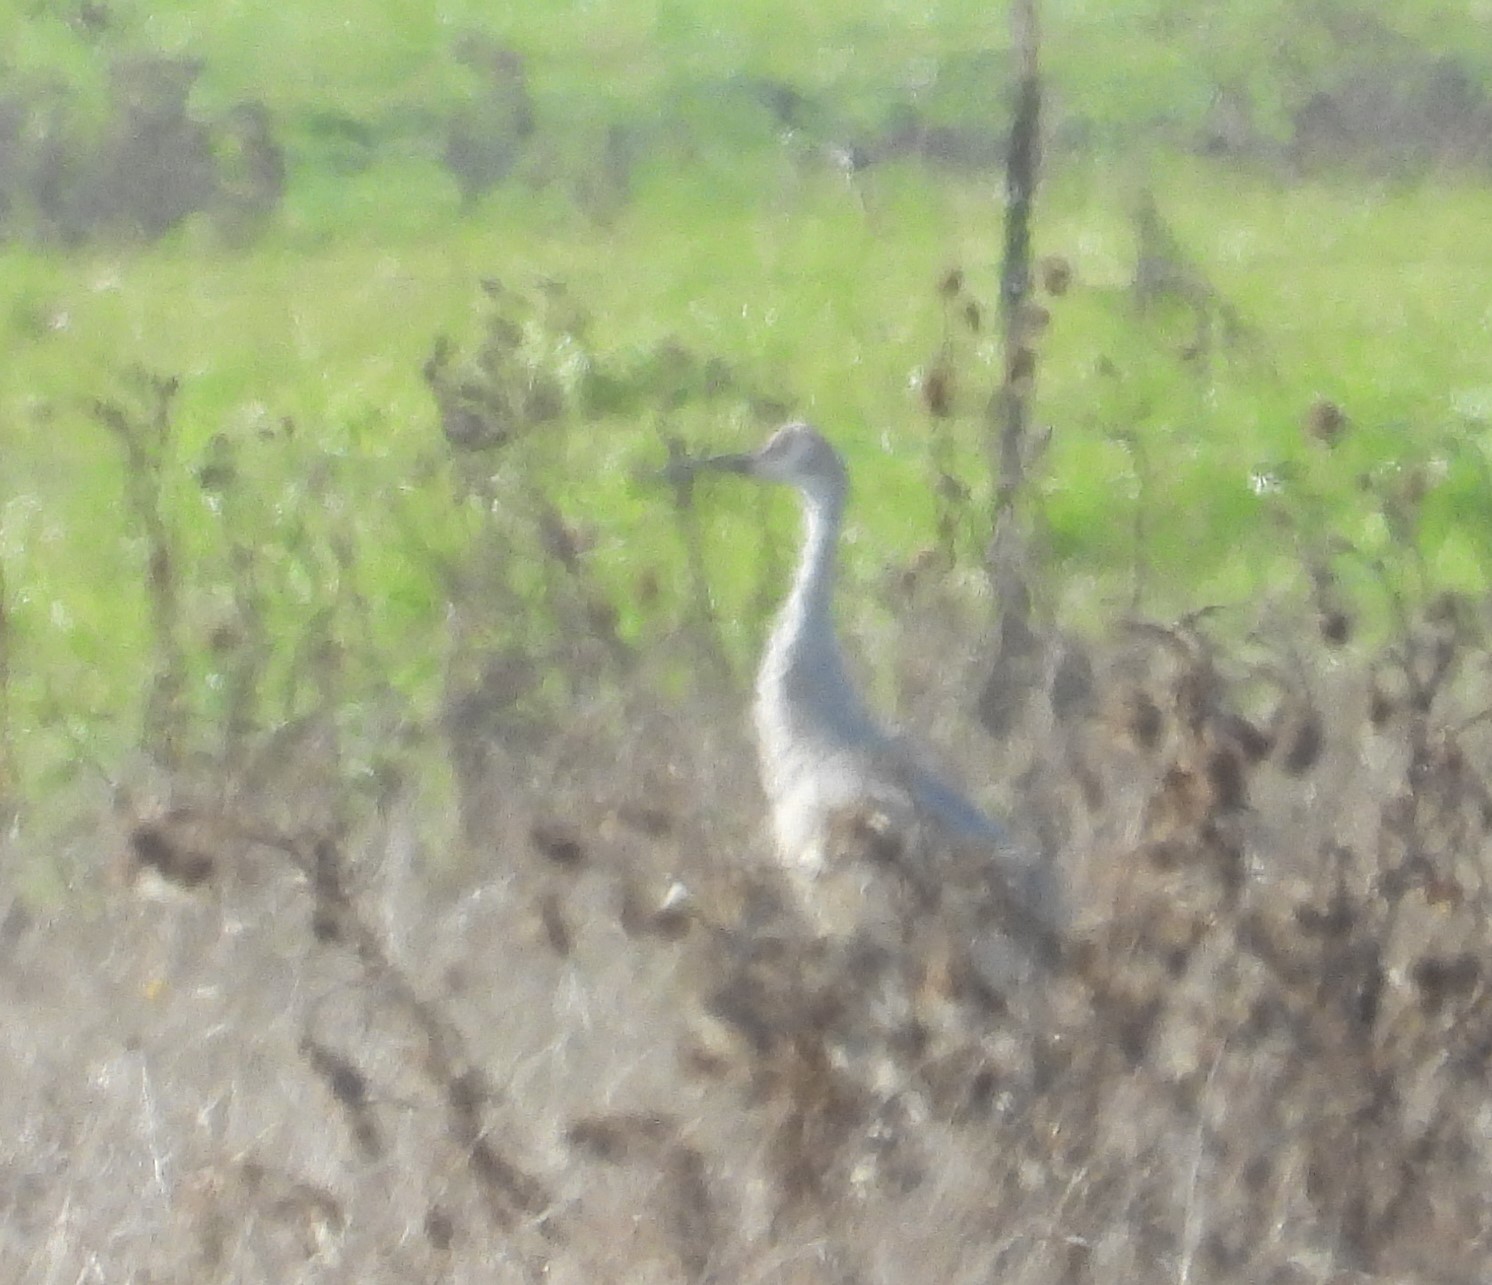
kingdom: Animalia
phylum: Chordata
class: Aves
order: Gruiformes
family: Gruidae
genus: Grus
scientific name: Grus canadensis
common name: Sandhill crane
